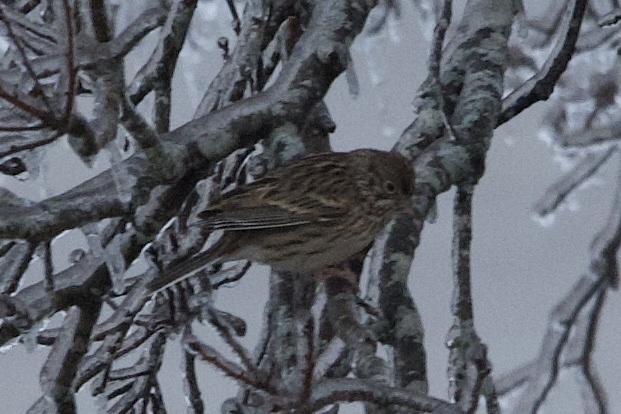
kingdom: Animalia
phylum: Chordata
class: Aves
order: Passeriformes
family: Passerellidae
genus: Pooecetes
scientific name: Pooecetes gramineus
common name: Vesper sparrow
